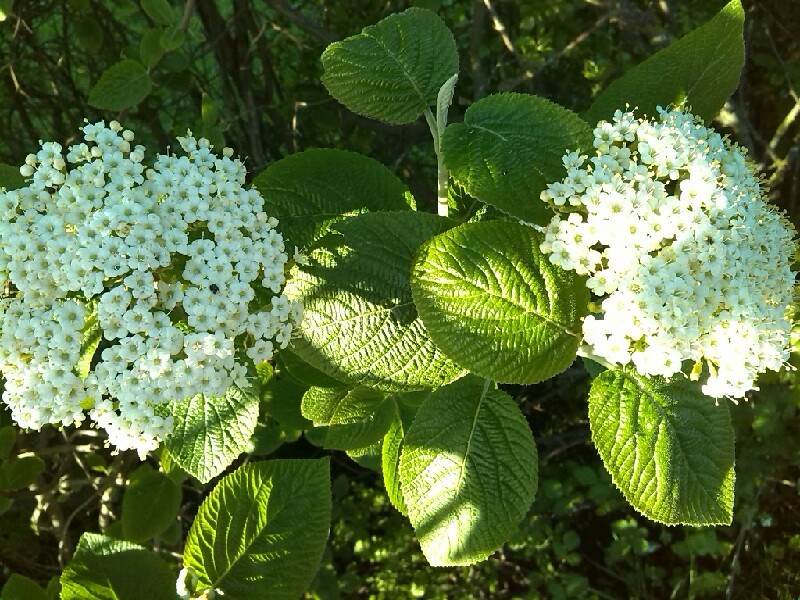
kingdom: Plantae
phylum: Tracheophyta
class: Magnoliopsida
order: Dipsacales
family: Viburnaceae
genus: Viburnum
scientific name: Viburnum lantana
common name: Wayfaring tree
